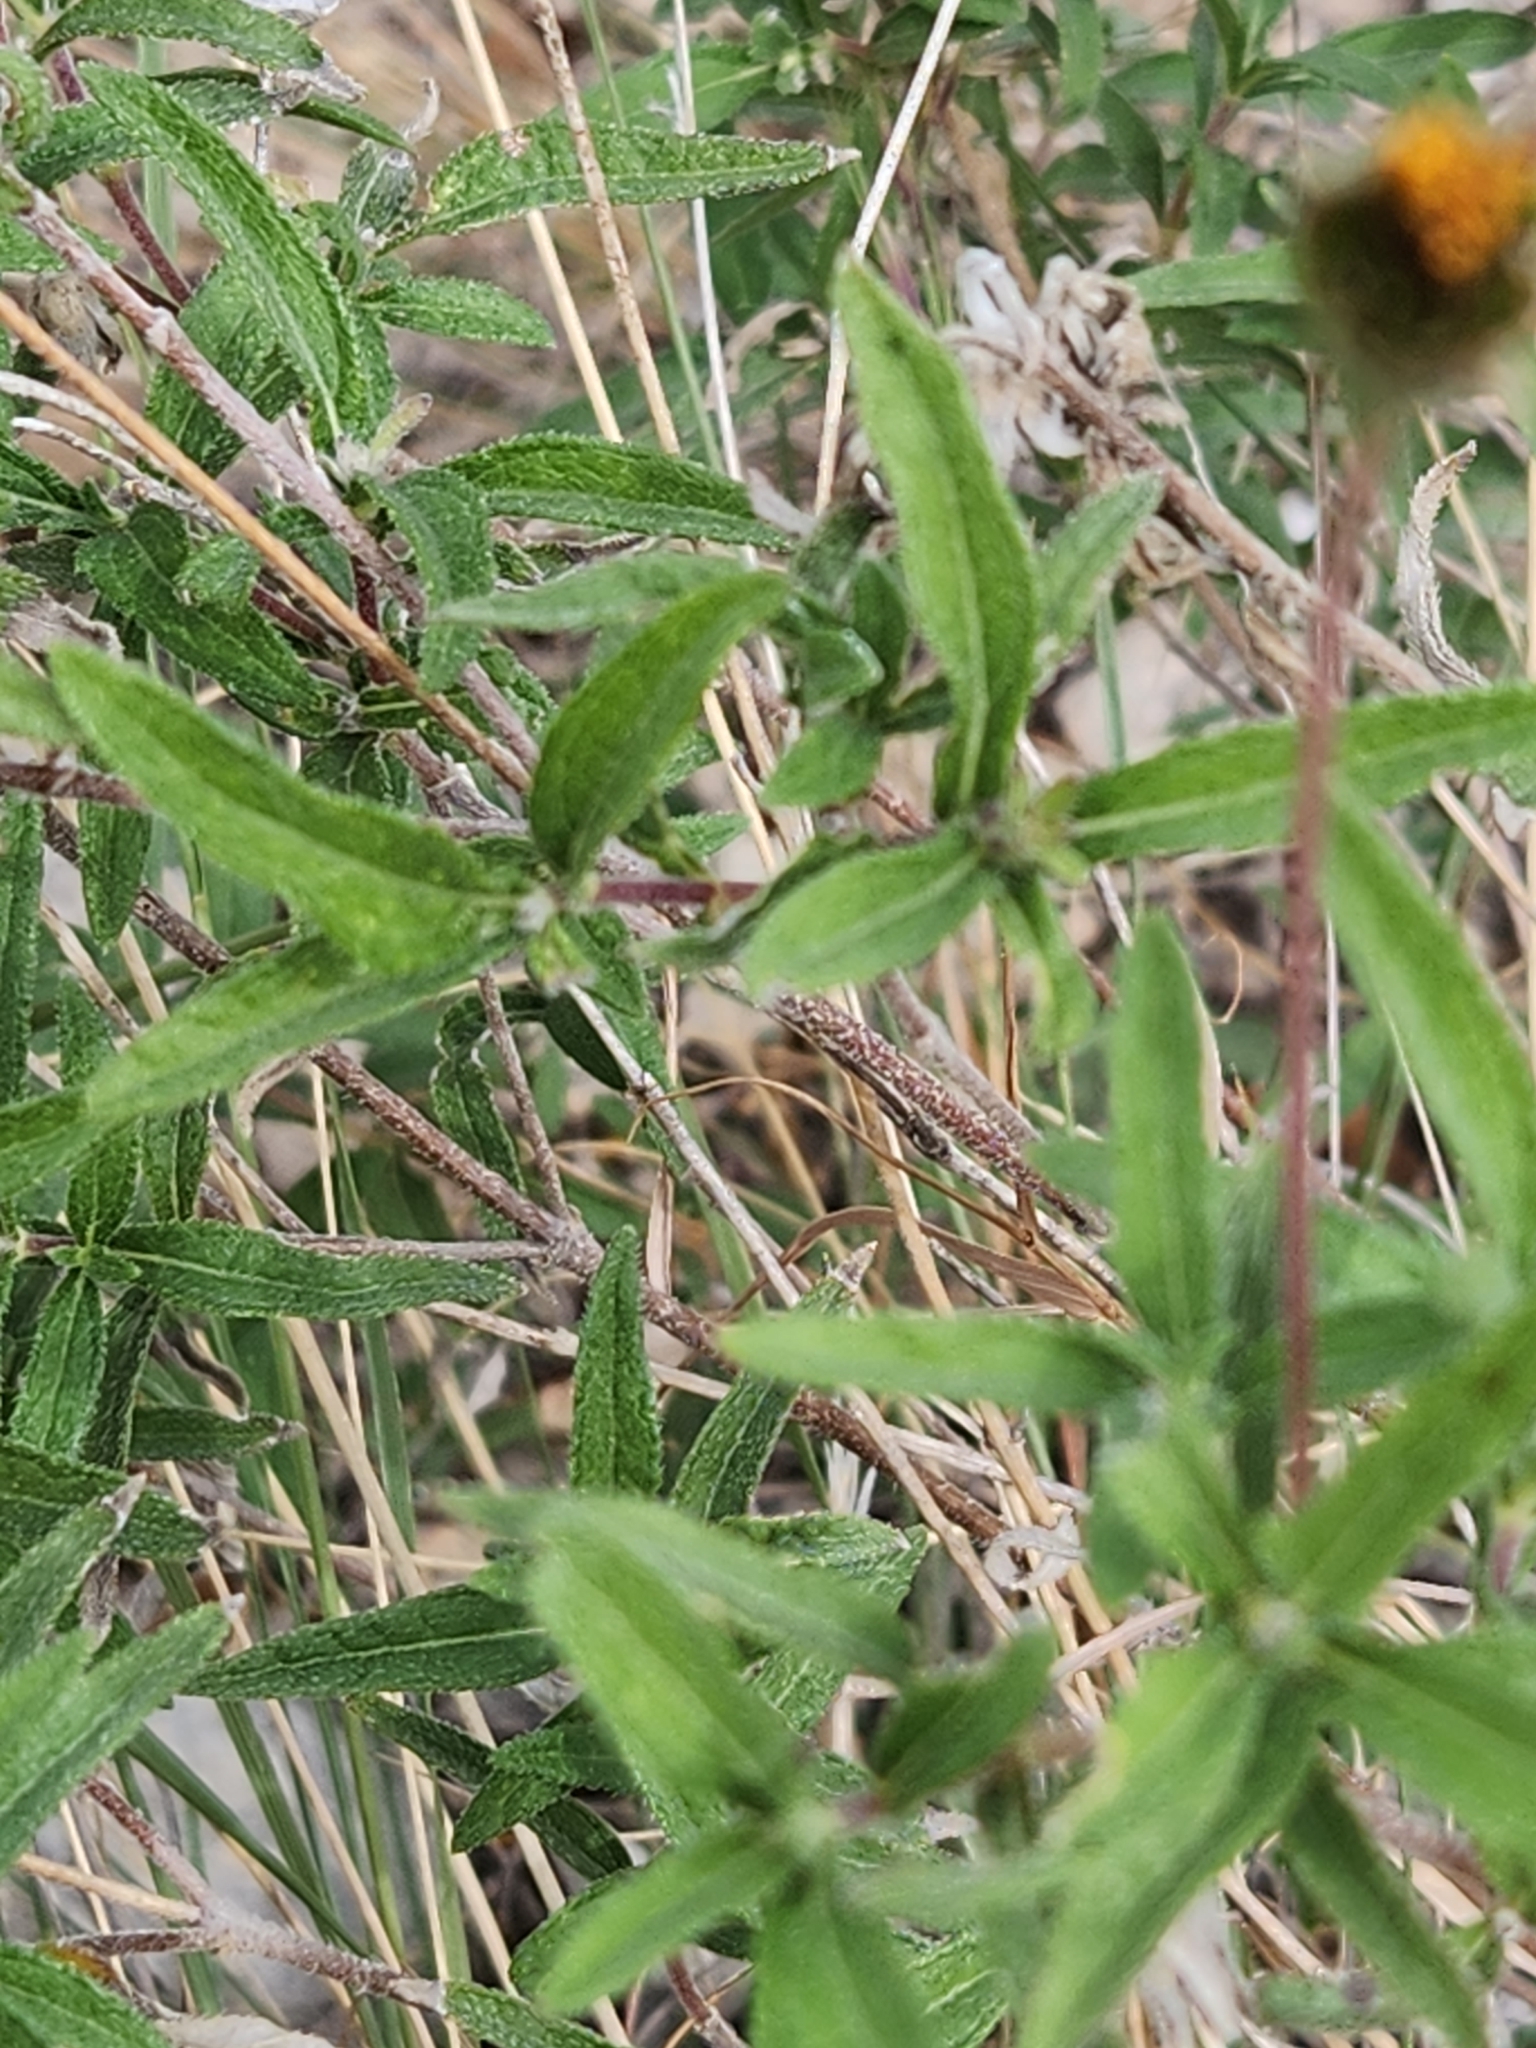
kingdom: Plantae
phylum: Tracheophyta
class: Magnoliopsida
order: Asterales
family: Asteraceae
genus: Wedelia
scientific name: Wedelia acapulcensis
